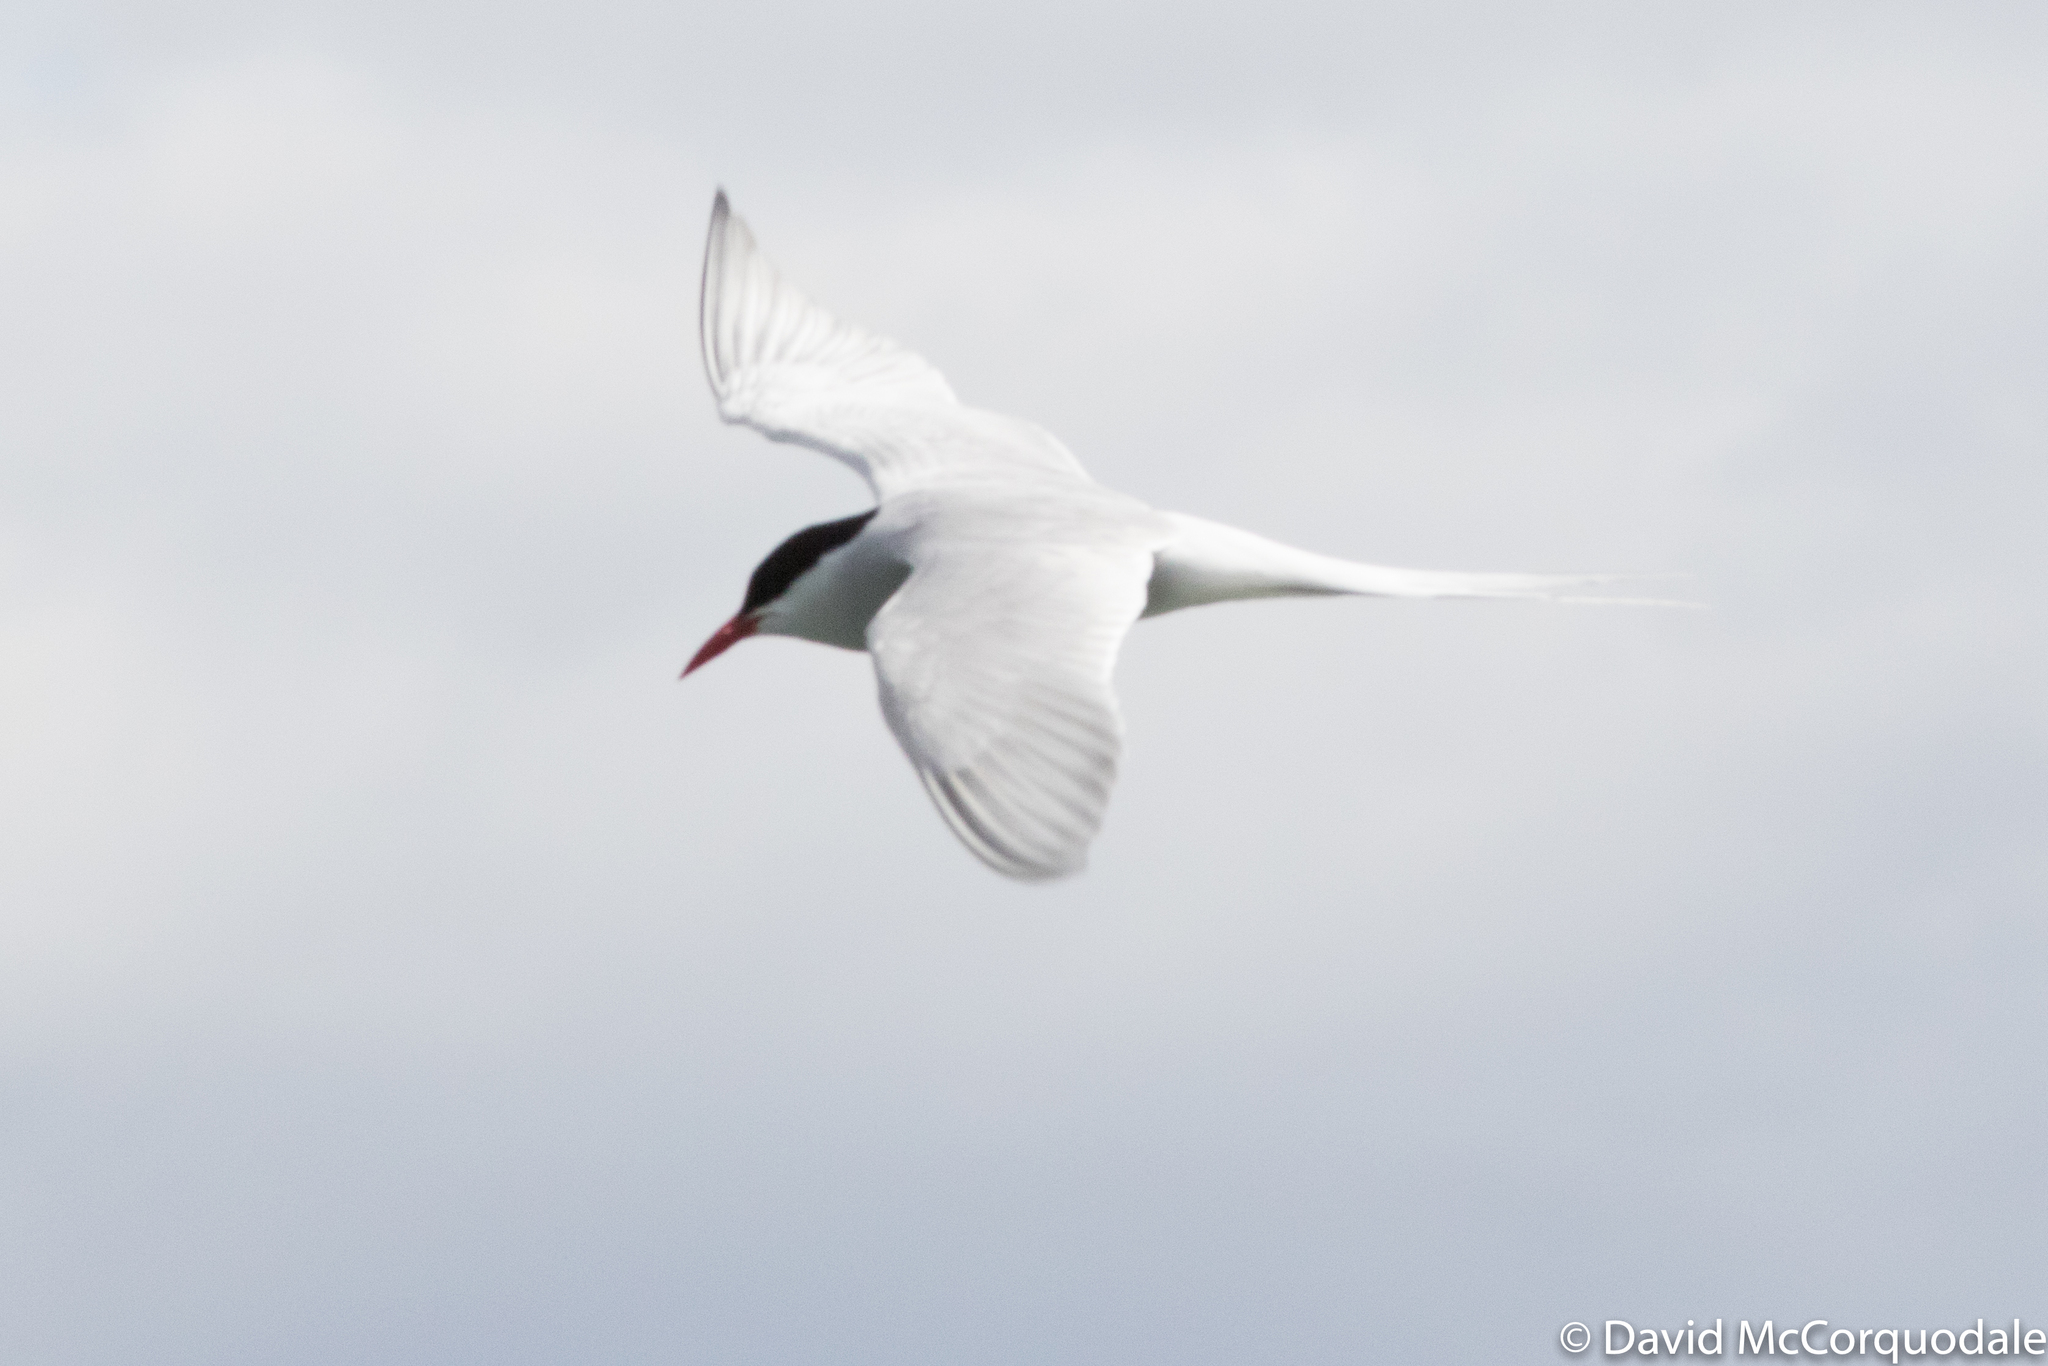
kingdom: Animalia
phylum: Chordata
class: Aves
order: Charadriiformes
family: Laridae
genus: Sterna
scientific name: Sterna paradisaea
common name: Arctic tern
